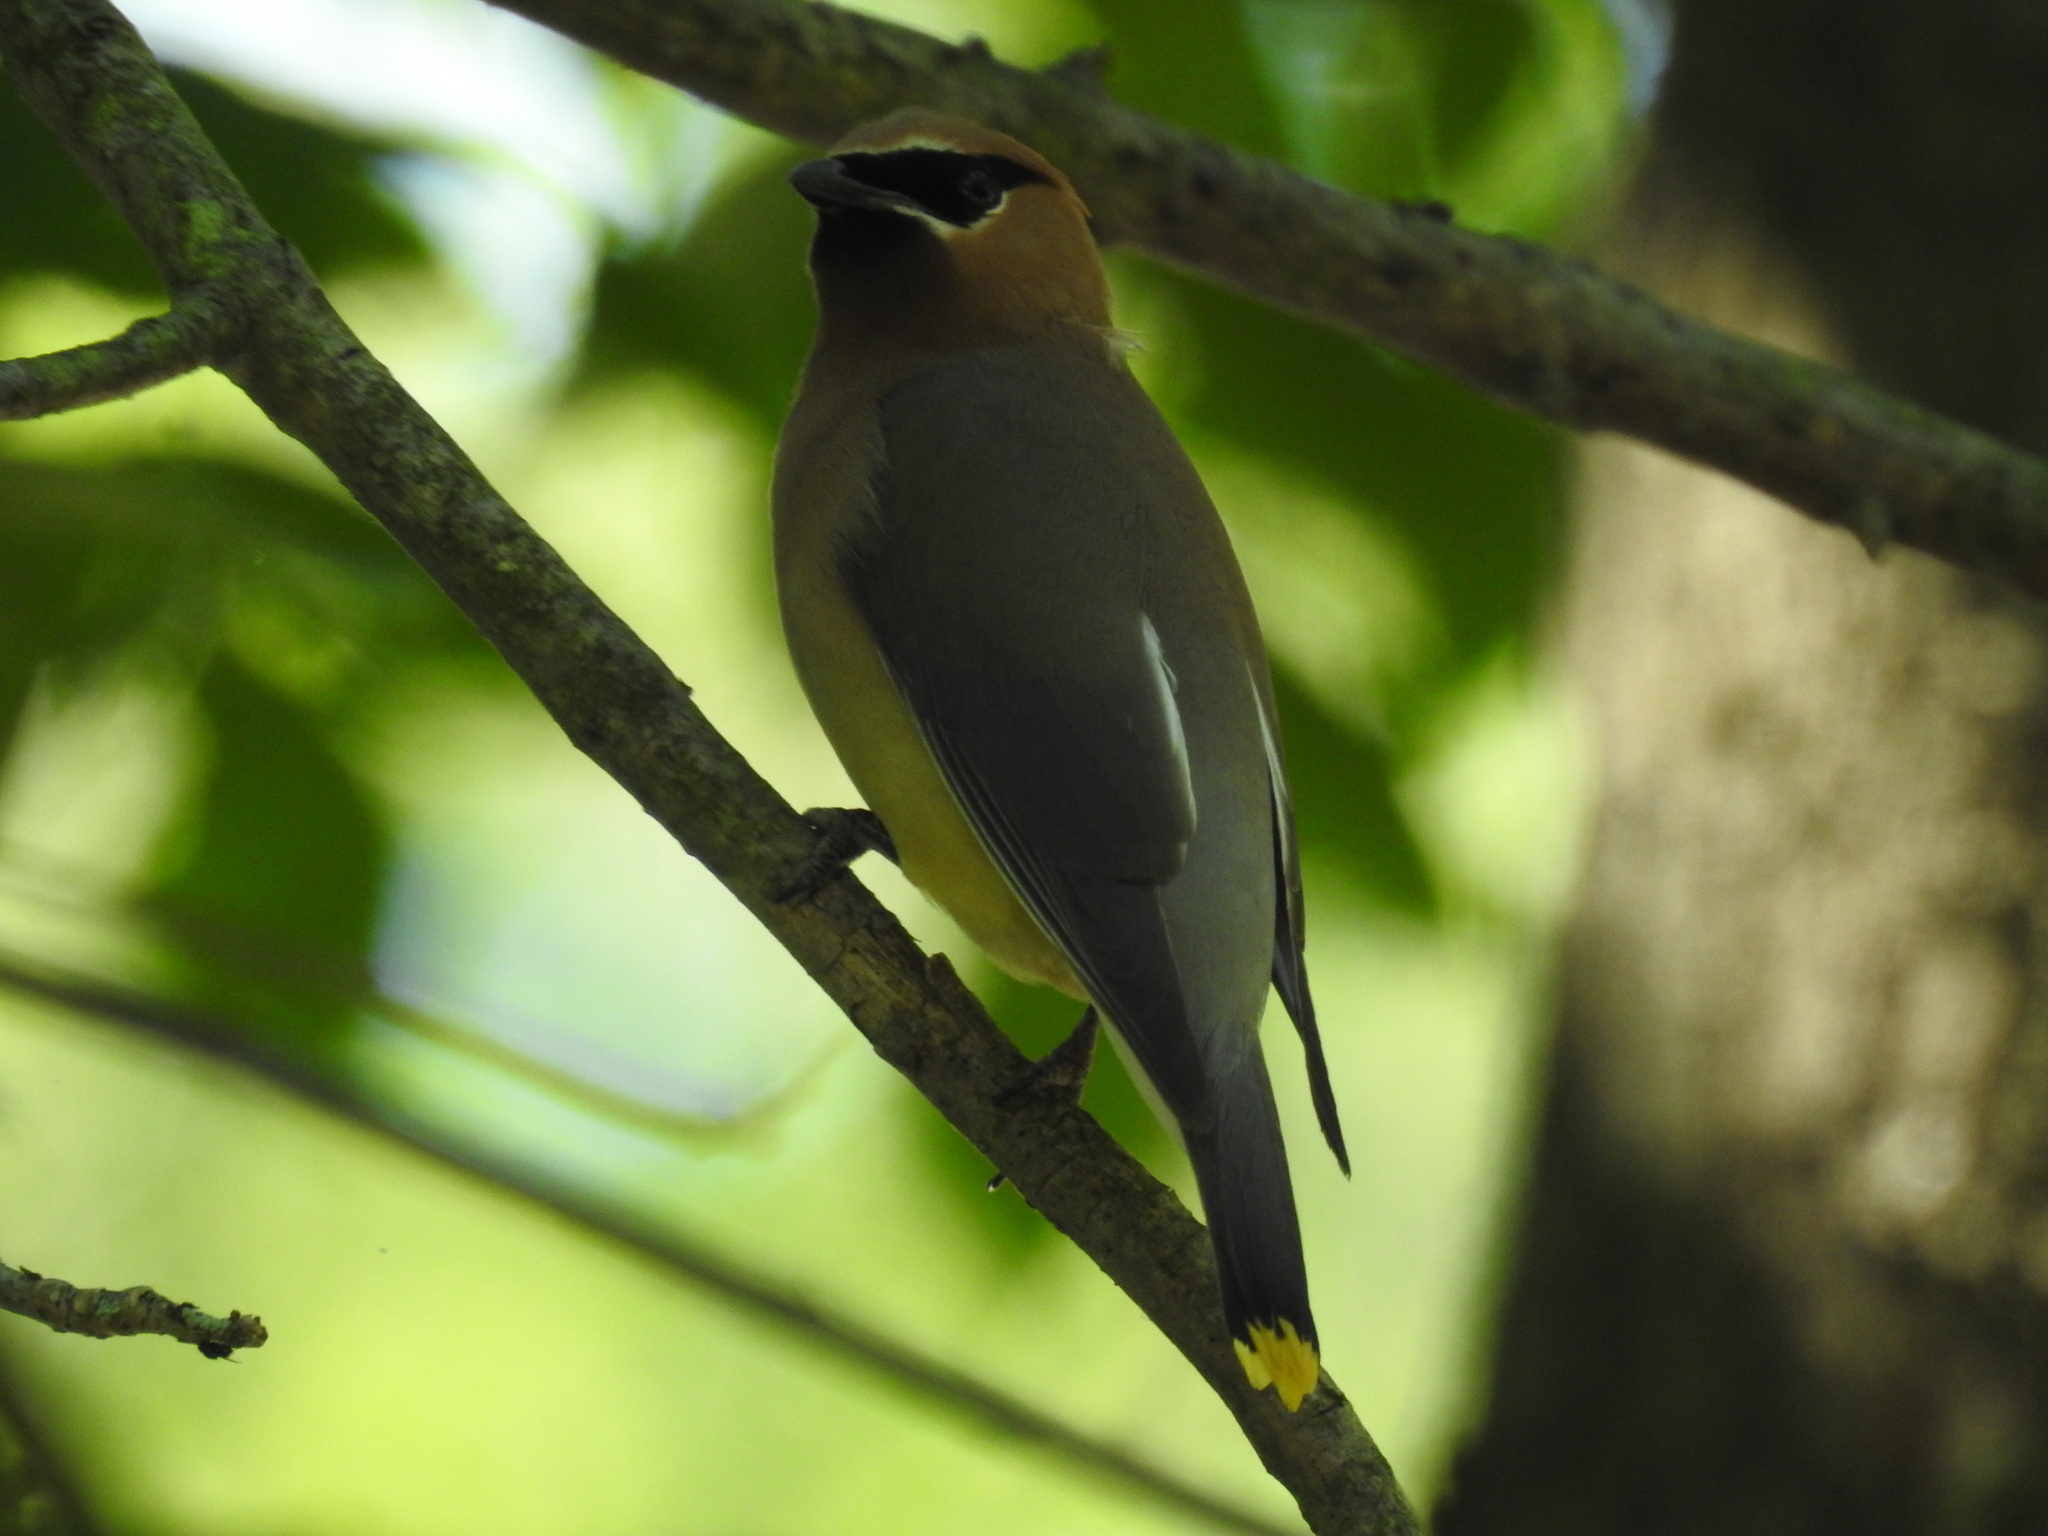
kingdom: Animalia
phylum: Chordata
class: Aves
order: Passeriformes
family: Bombycillidae
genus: Bombycilla
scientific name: Bombycilla cedrorum
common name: Cedar waxwing
